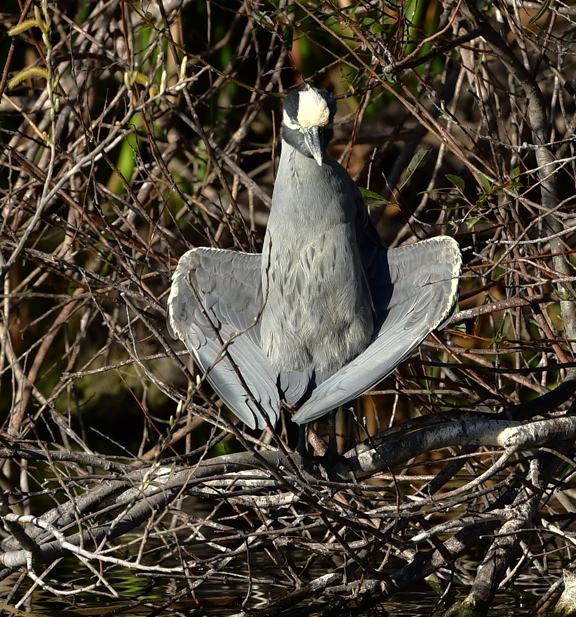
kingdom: Animalia
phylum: Chordata
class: Aves
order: Pelecaniformes
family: Ardeidae
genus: Nyctanassa
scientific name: Nyctanassa violacea
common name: Yellow-crowned night heron
